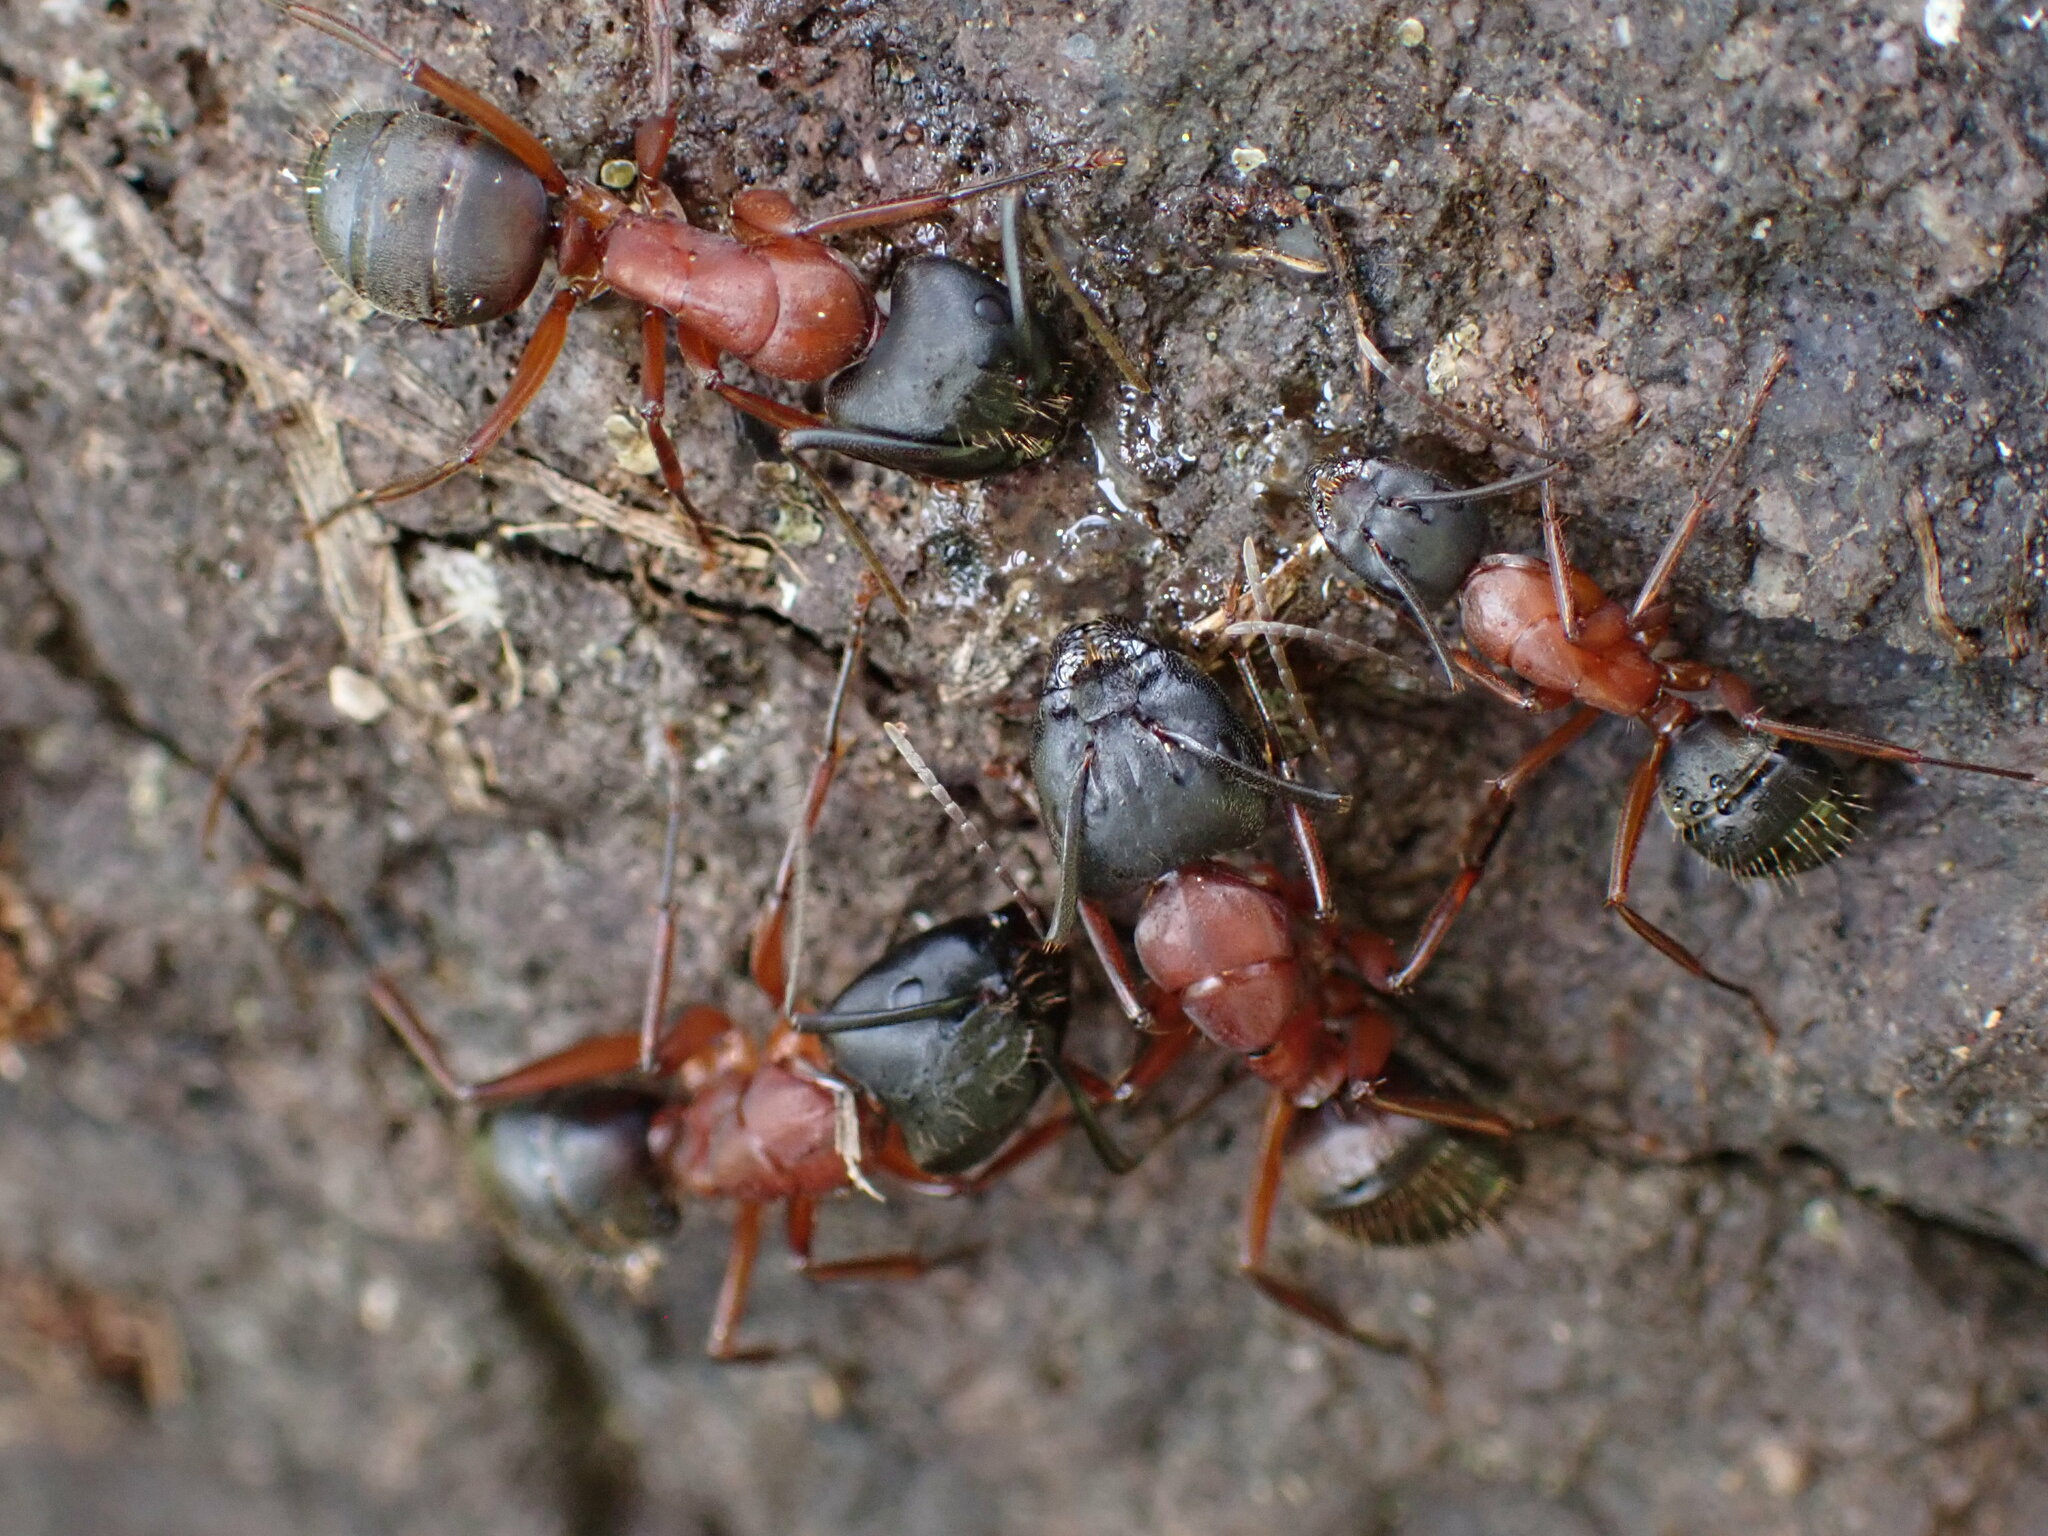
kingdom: Animalia
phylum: Arthropoda
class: Insecta
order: Hymenoptera
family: Formicidae
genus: Camponotus
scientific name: Camponotus vicinus
